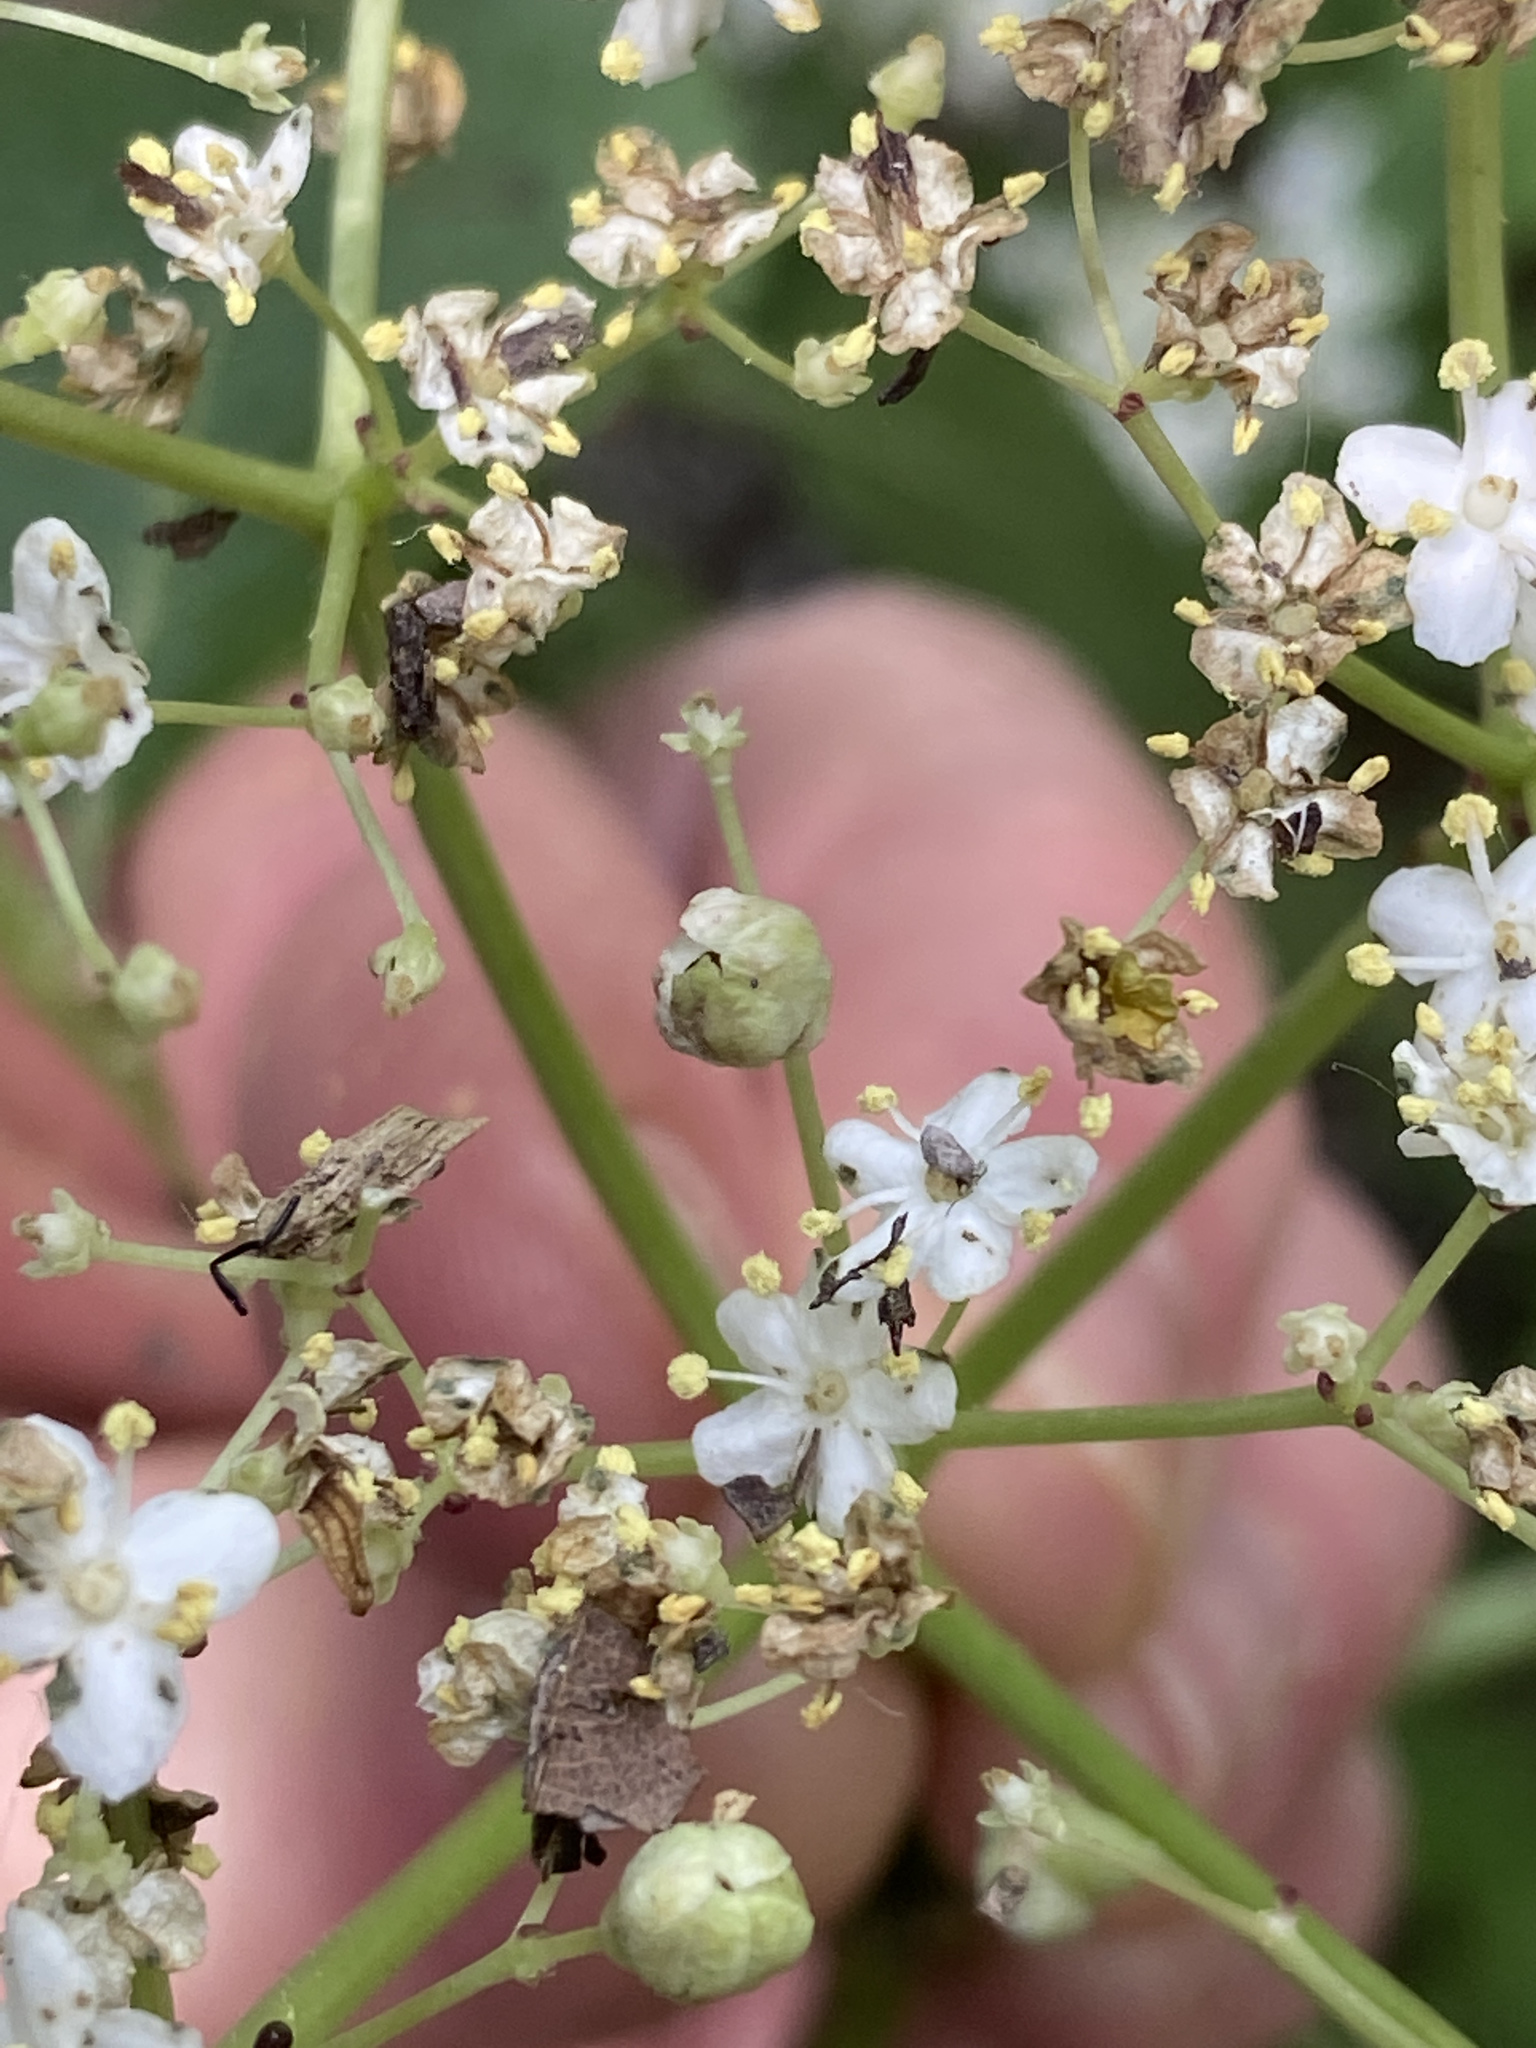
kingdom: Animalia
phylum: Arthropoda
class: Insecta
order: Diptera
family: Cecidomyiidae
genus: Placochela
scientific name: Placochela nigripes
